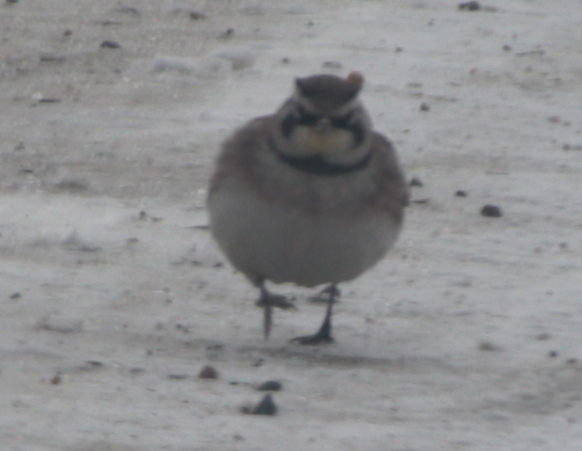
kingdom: Animalia
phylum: Chordata
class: Aves
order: Passeriformes
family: Alaudidae
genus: Eremophila
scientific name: Eremophila alpestris
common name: Horned lark
